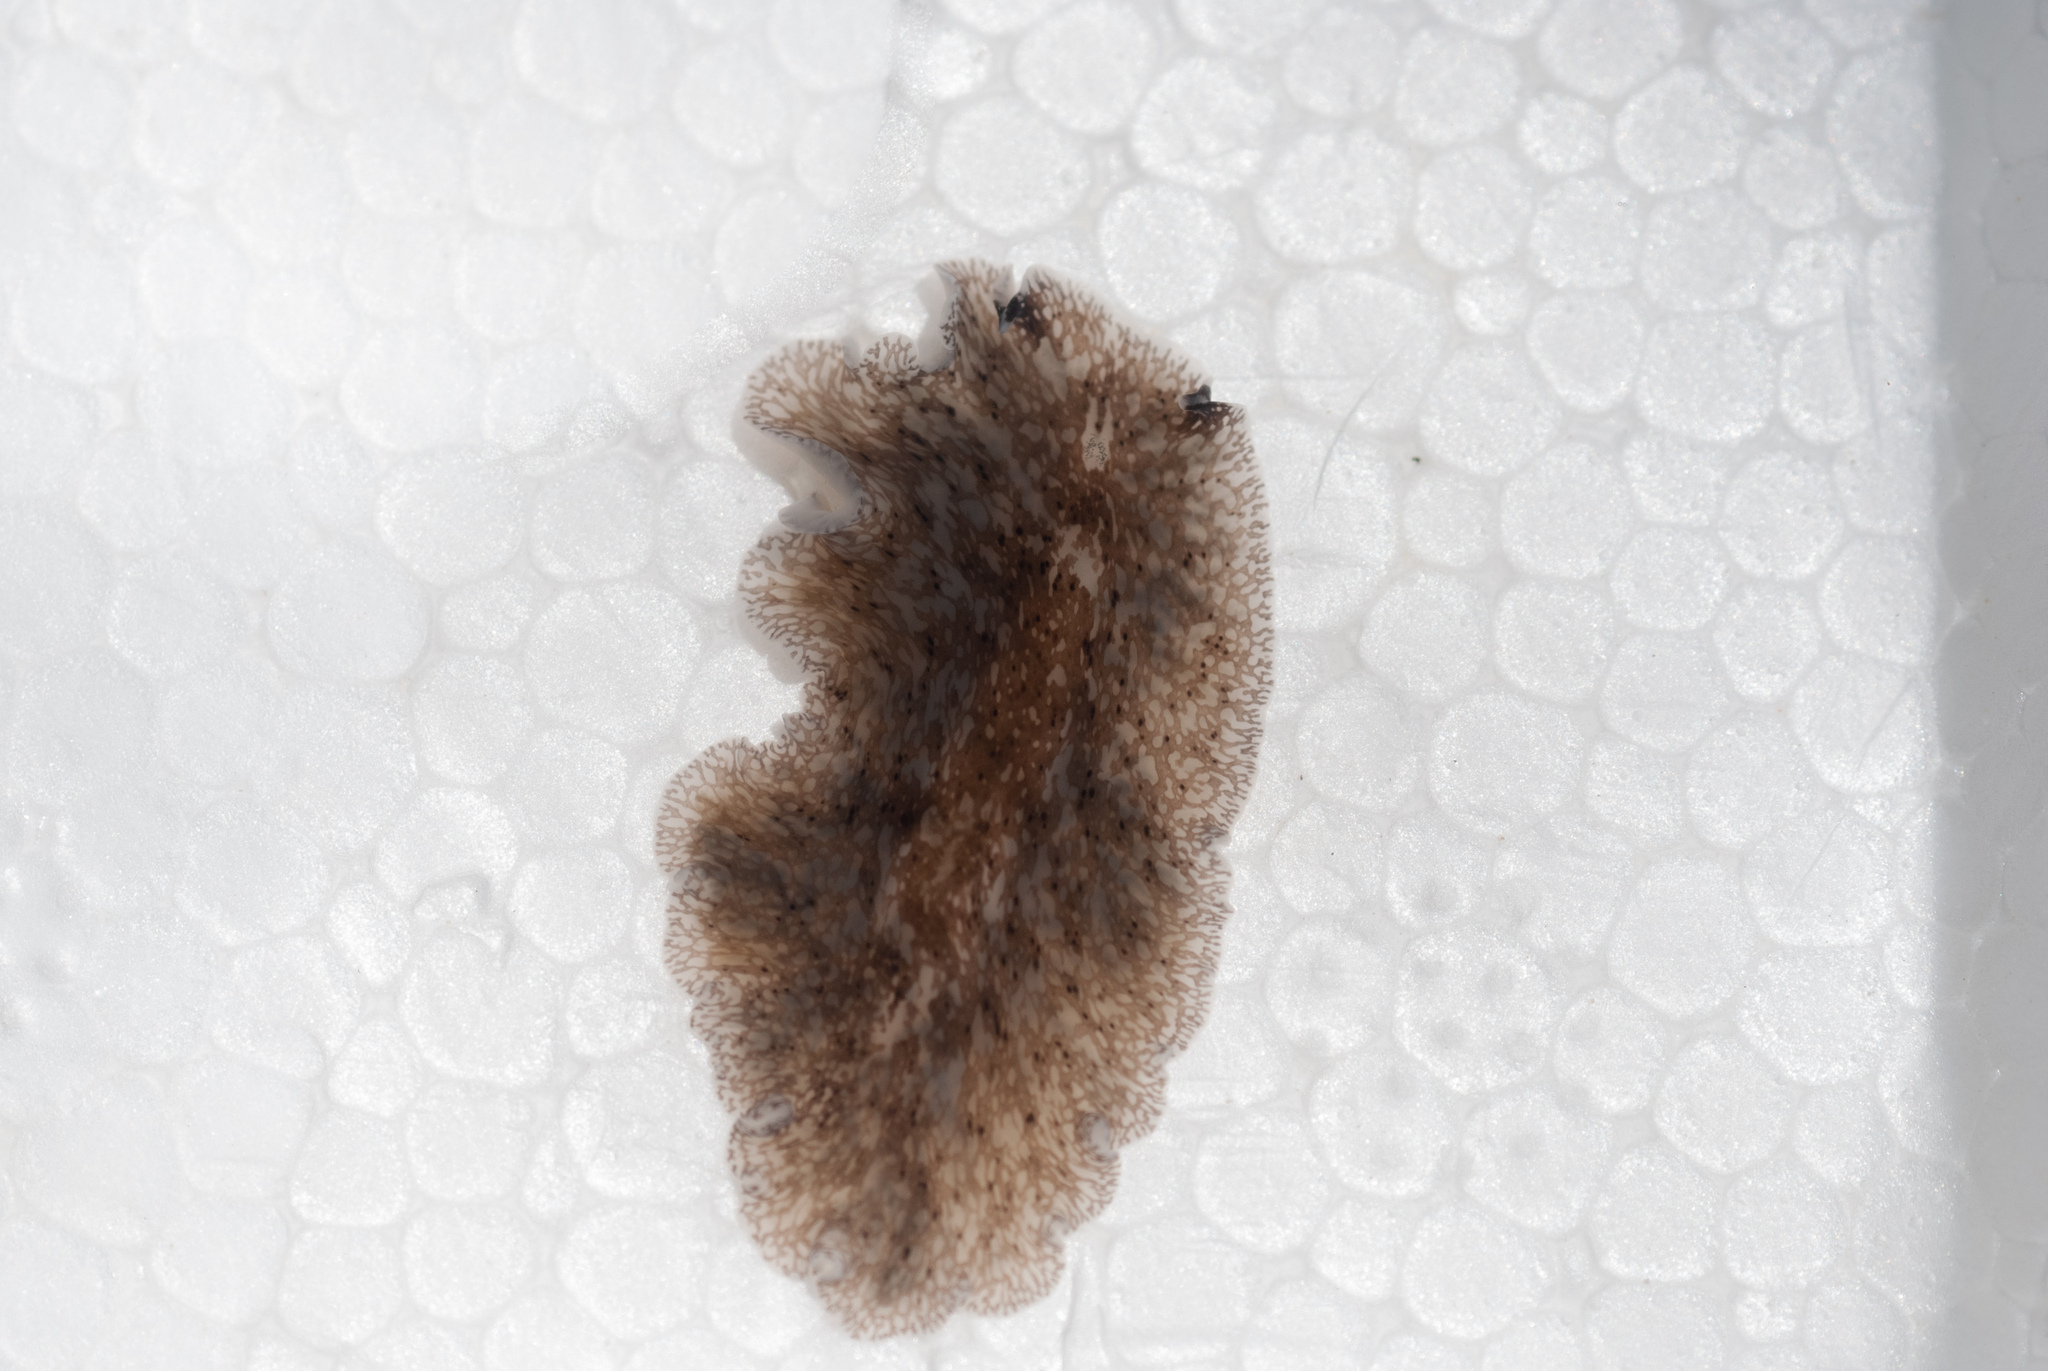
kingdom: Animalia
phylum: Platyhelminthes
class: Turbellaria
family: Pericelidae
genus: Pericelis
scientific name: Pericelis cata
